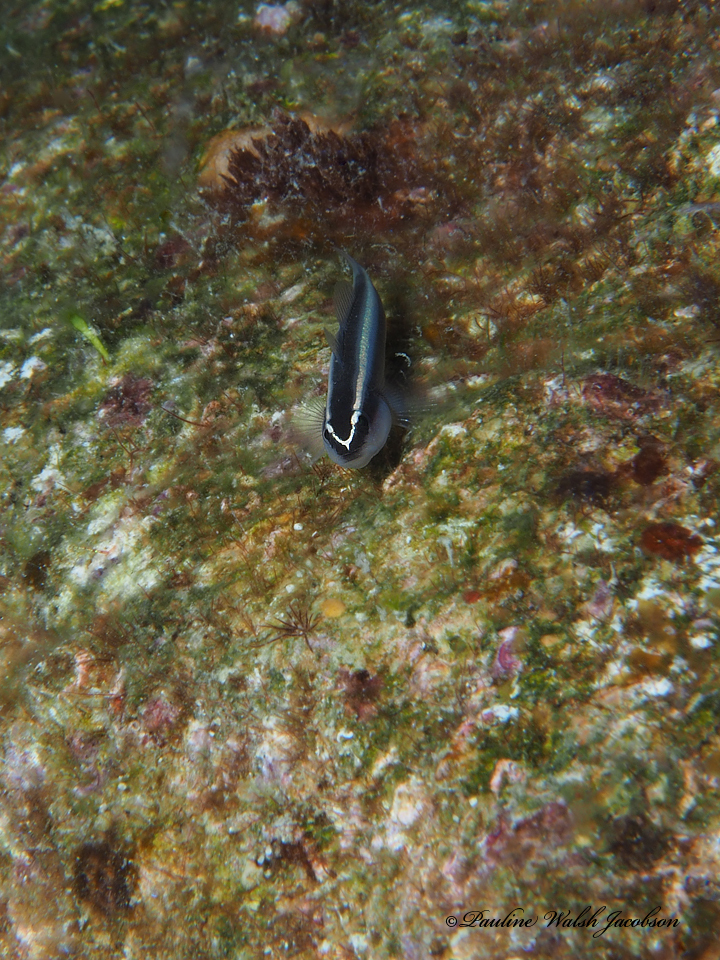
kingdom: Animalia
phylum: Chordata
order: Perciformes
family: Gobiidae
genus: Elacatinus
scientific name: Elacatinus prochilos
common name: Broadstripe goby
